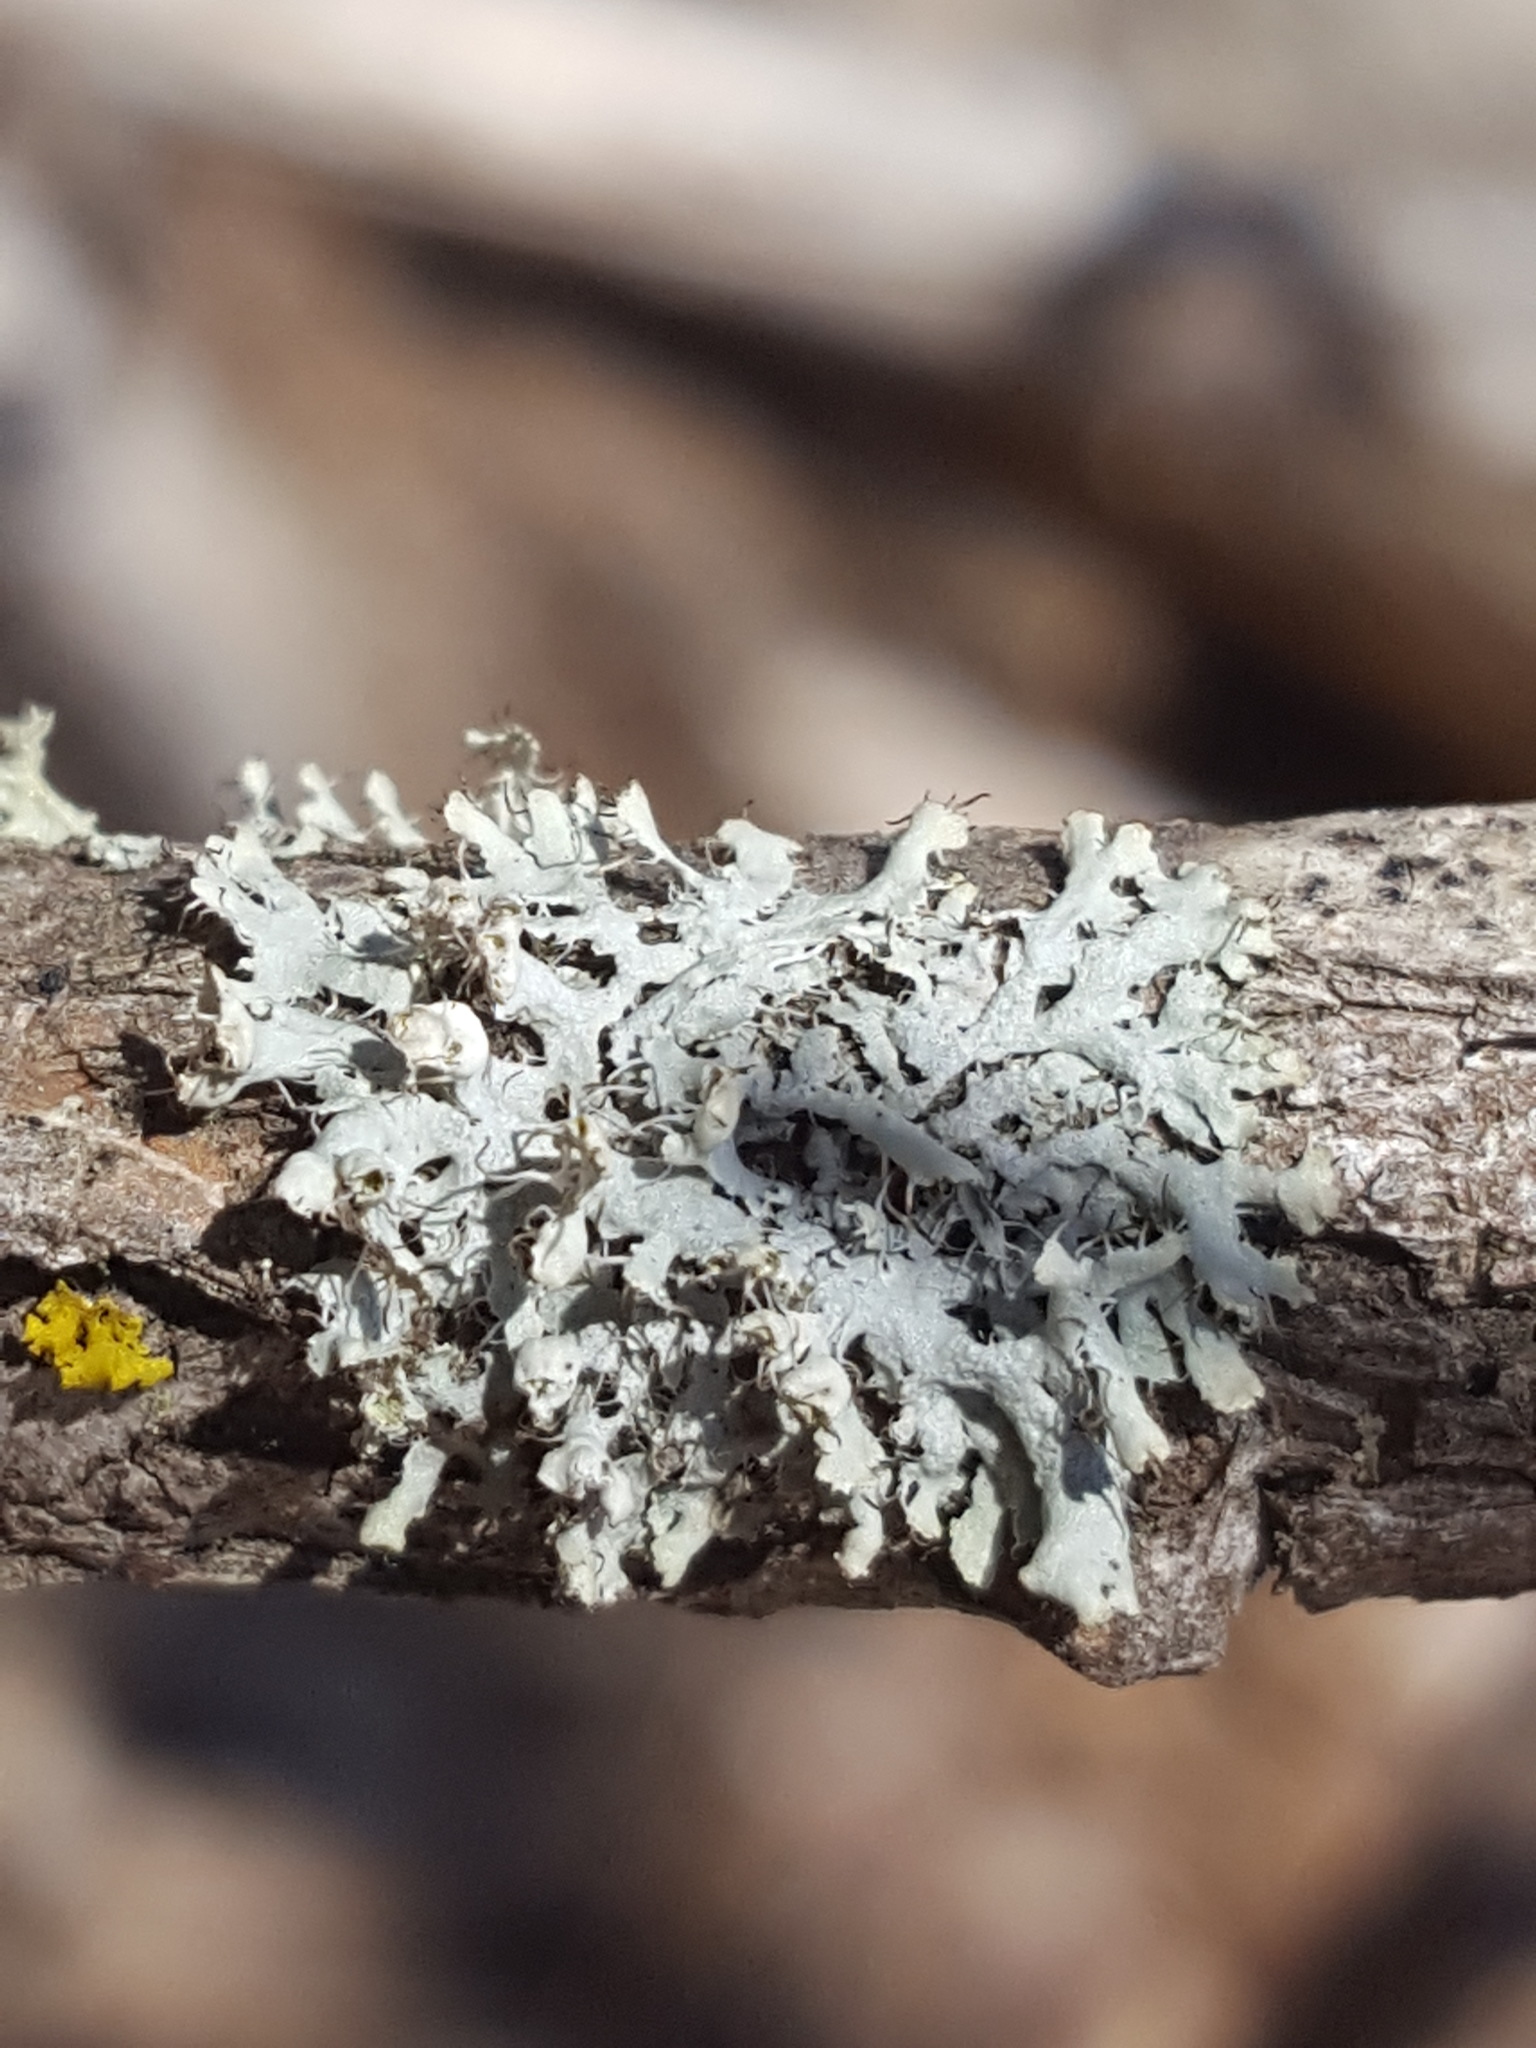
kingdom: Fungi
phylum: Ascomycota
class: Lecanoromycetes
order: Caliciales
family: Physciaceae
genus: Physcia
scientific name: Physcia adscendens
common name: Hooded rosette lichen
